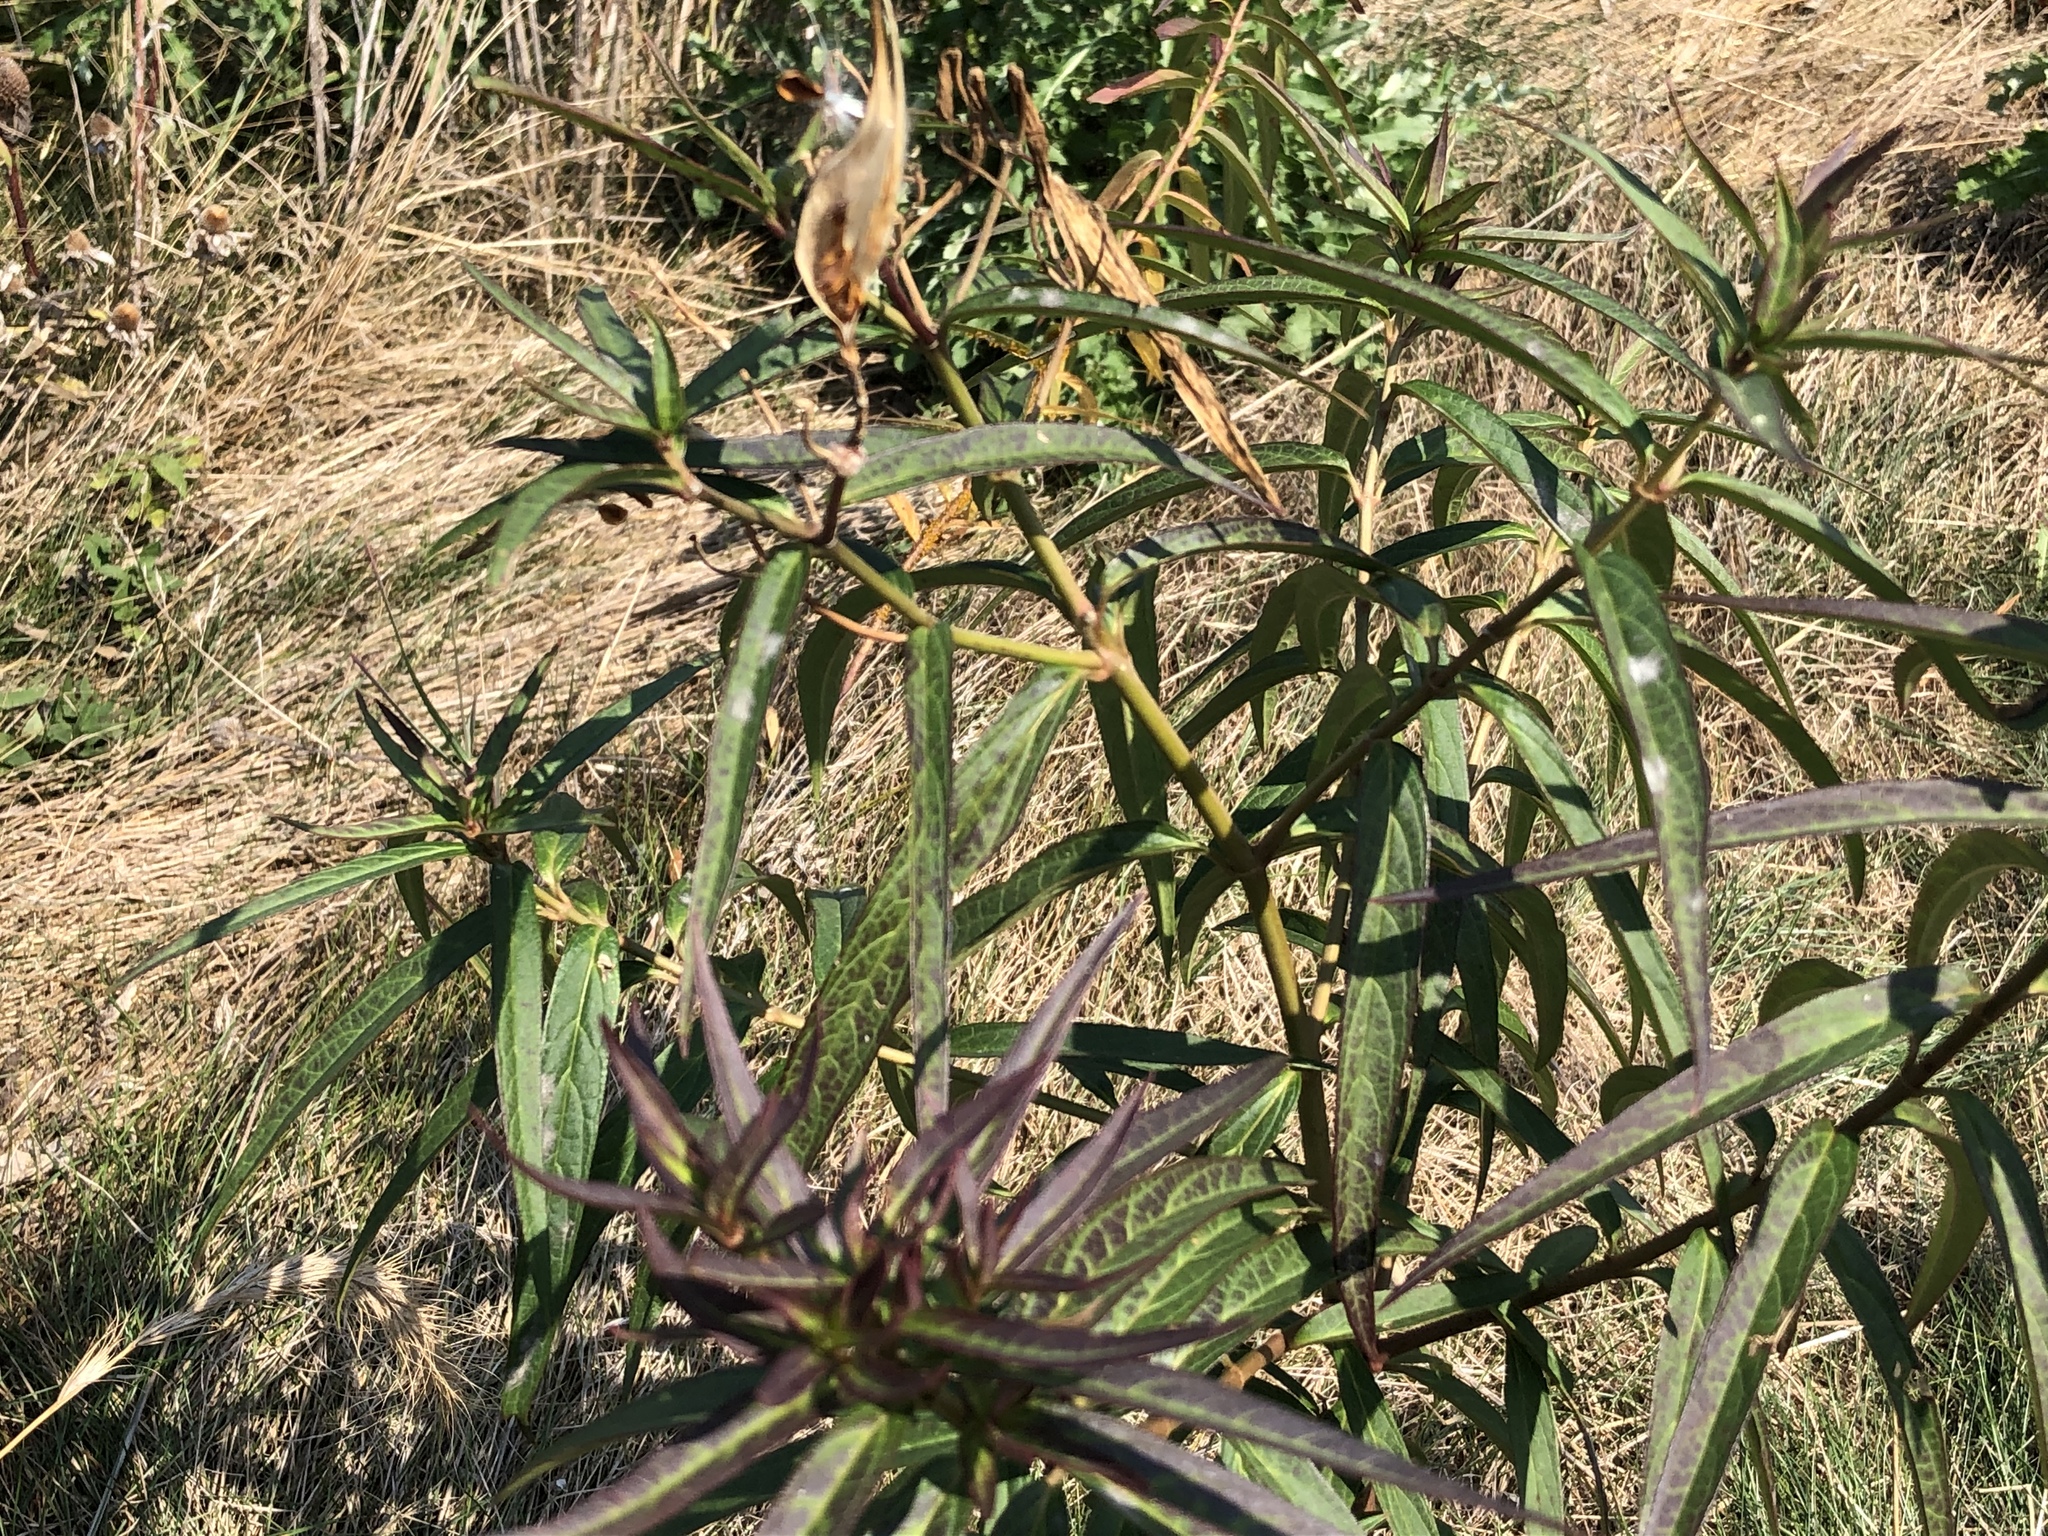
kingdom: Plantae
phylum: Tracheophyta
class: Magnoliopsida
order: Gentianales
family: Apocynaceae
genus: Asclepias
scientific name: Asclepias incarnata
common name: Swamp milkweed
